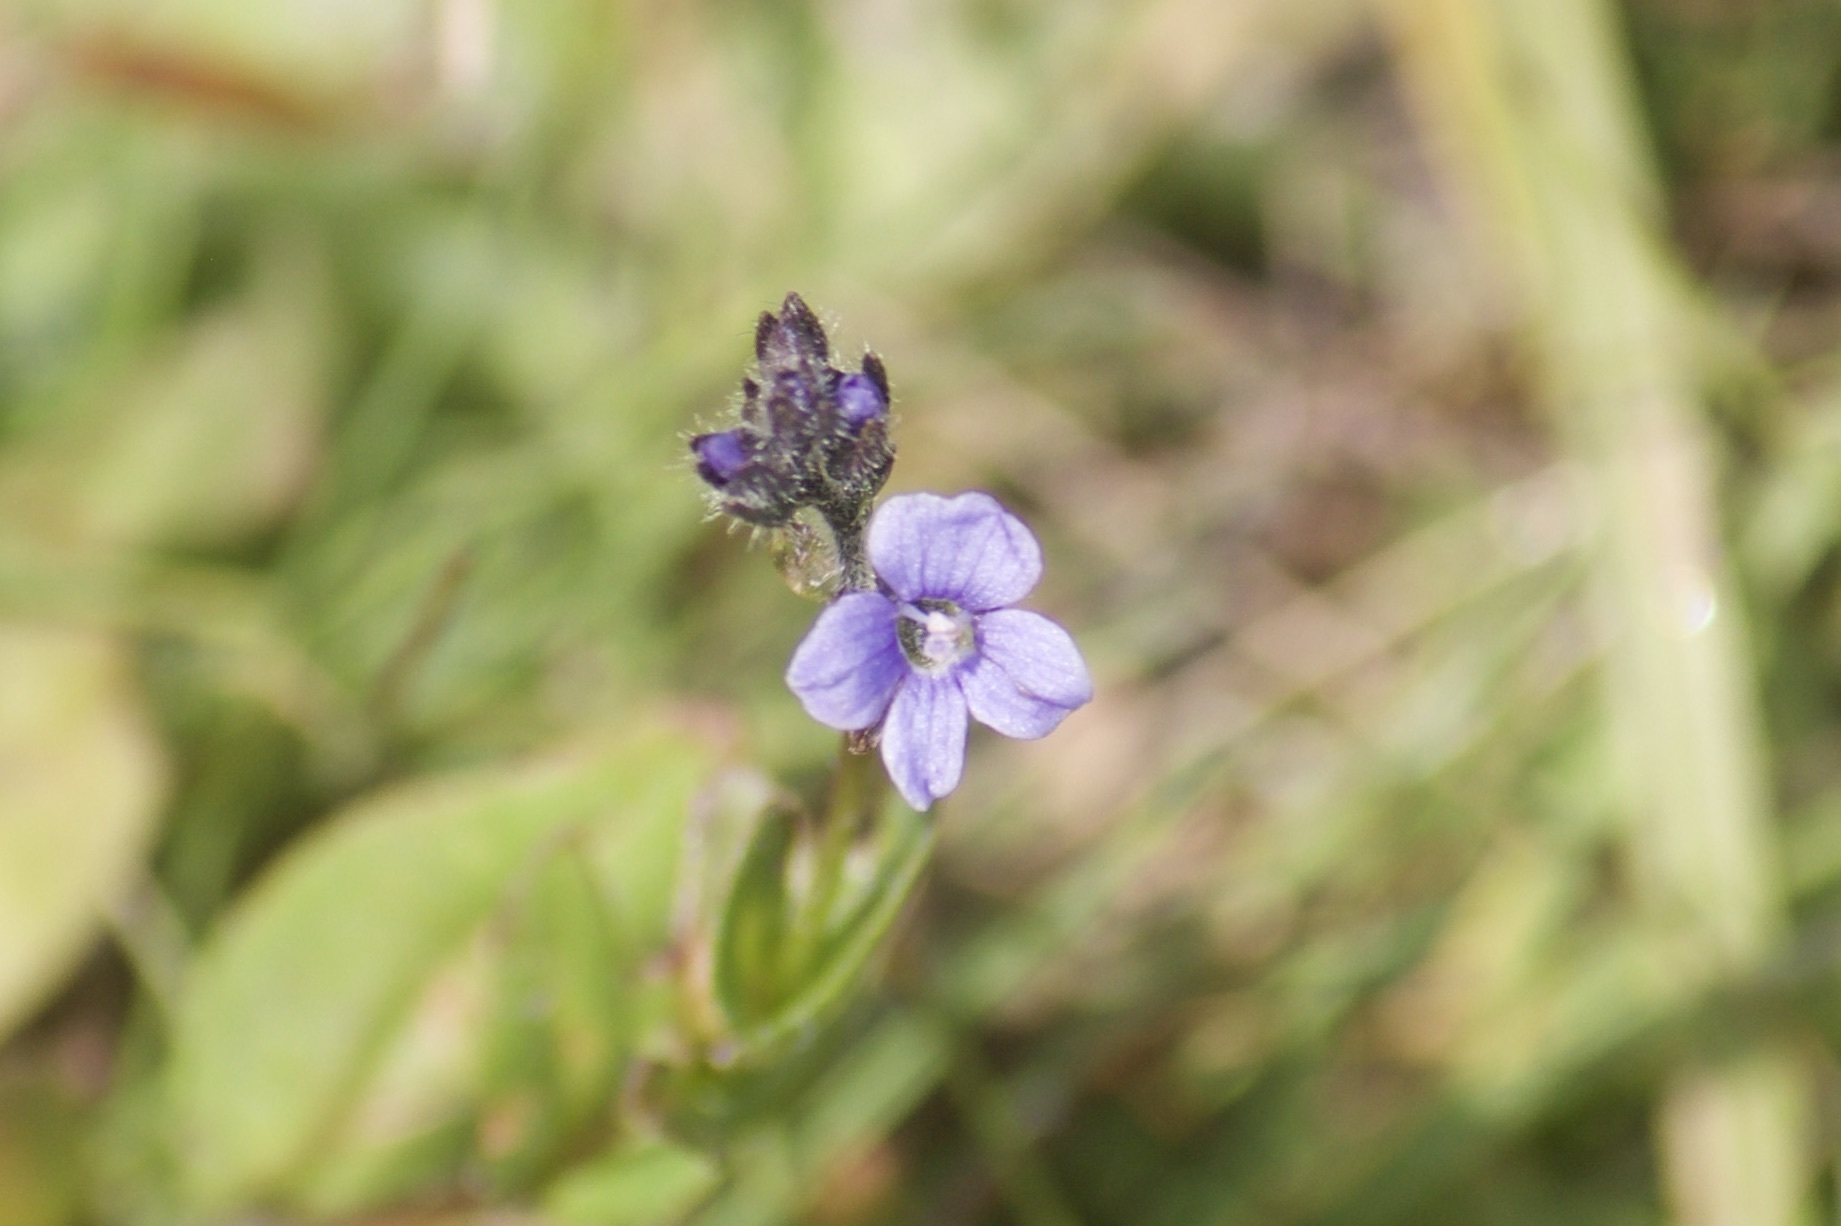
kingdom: Plantae
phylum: Tracheophyta
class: Magnoliopsida
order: Lamiales
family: Plantaginaceae
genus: Veronica
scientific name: Veronica wormskjoldii
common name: American alpine speedwell
